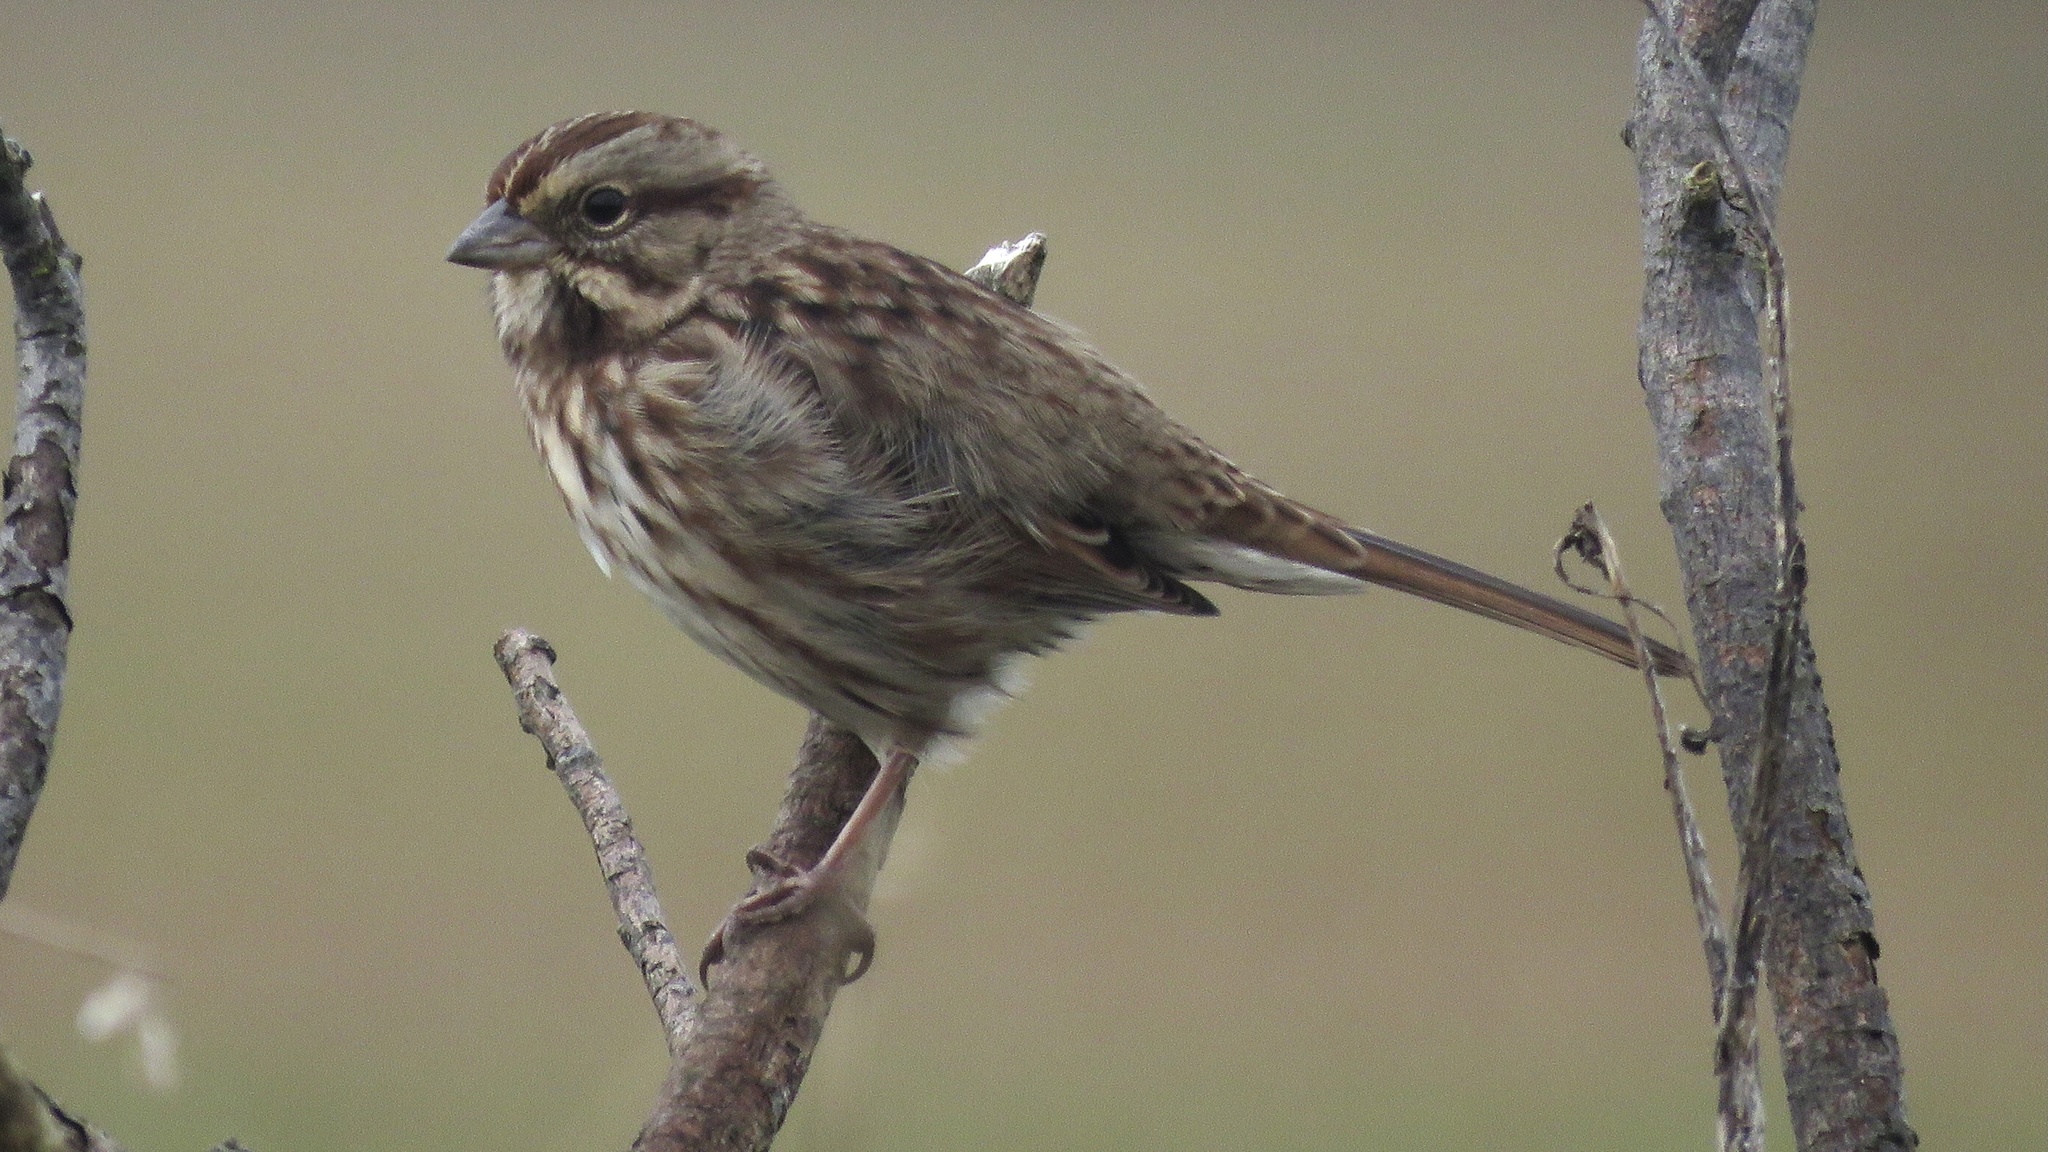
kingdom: Animalia
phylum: Chordata
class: Aves
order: Passeriformes
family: Passerellidae
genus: Melospiza
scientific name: Melospiza melodia
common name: Song sparrow
